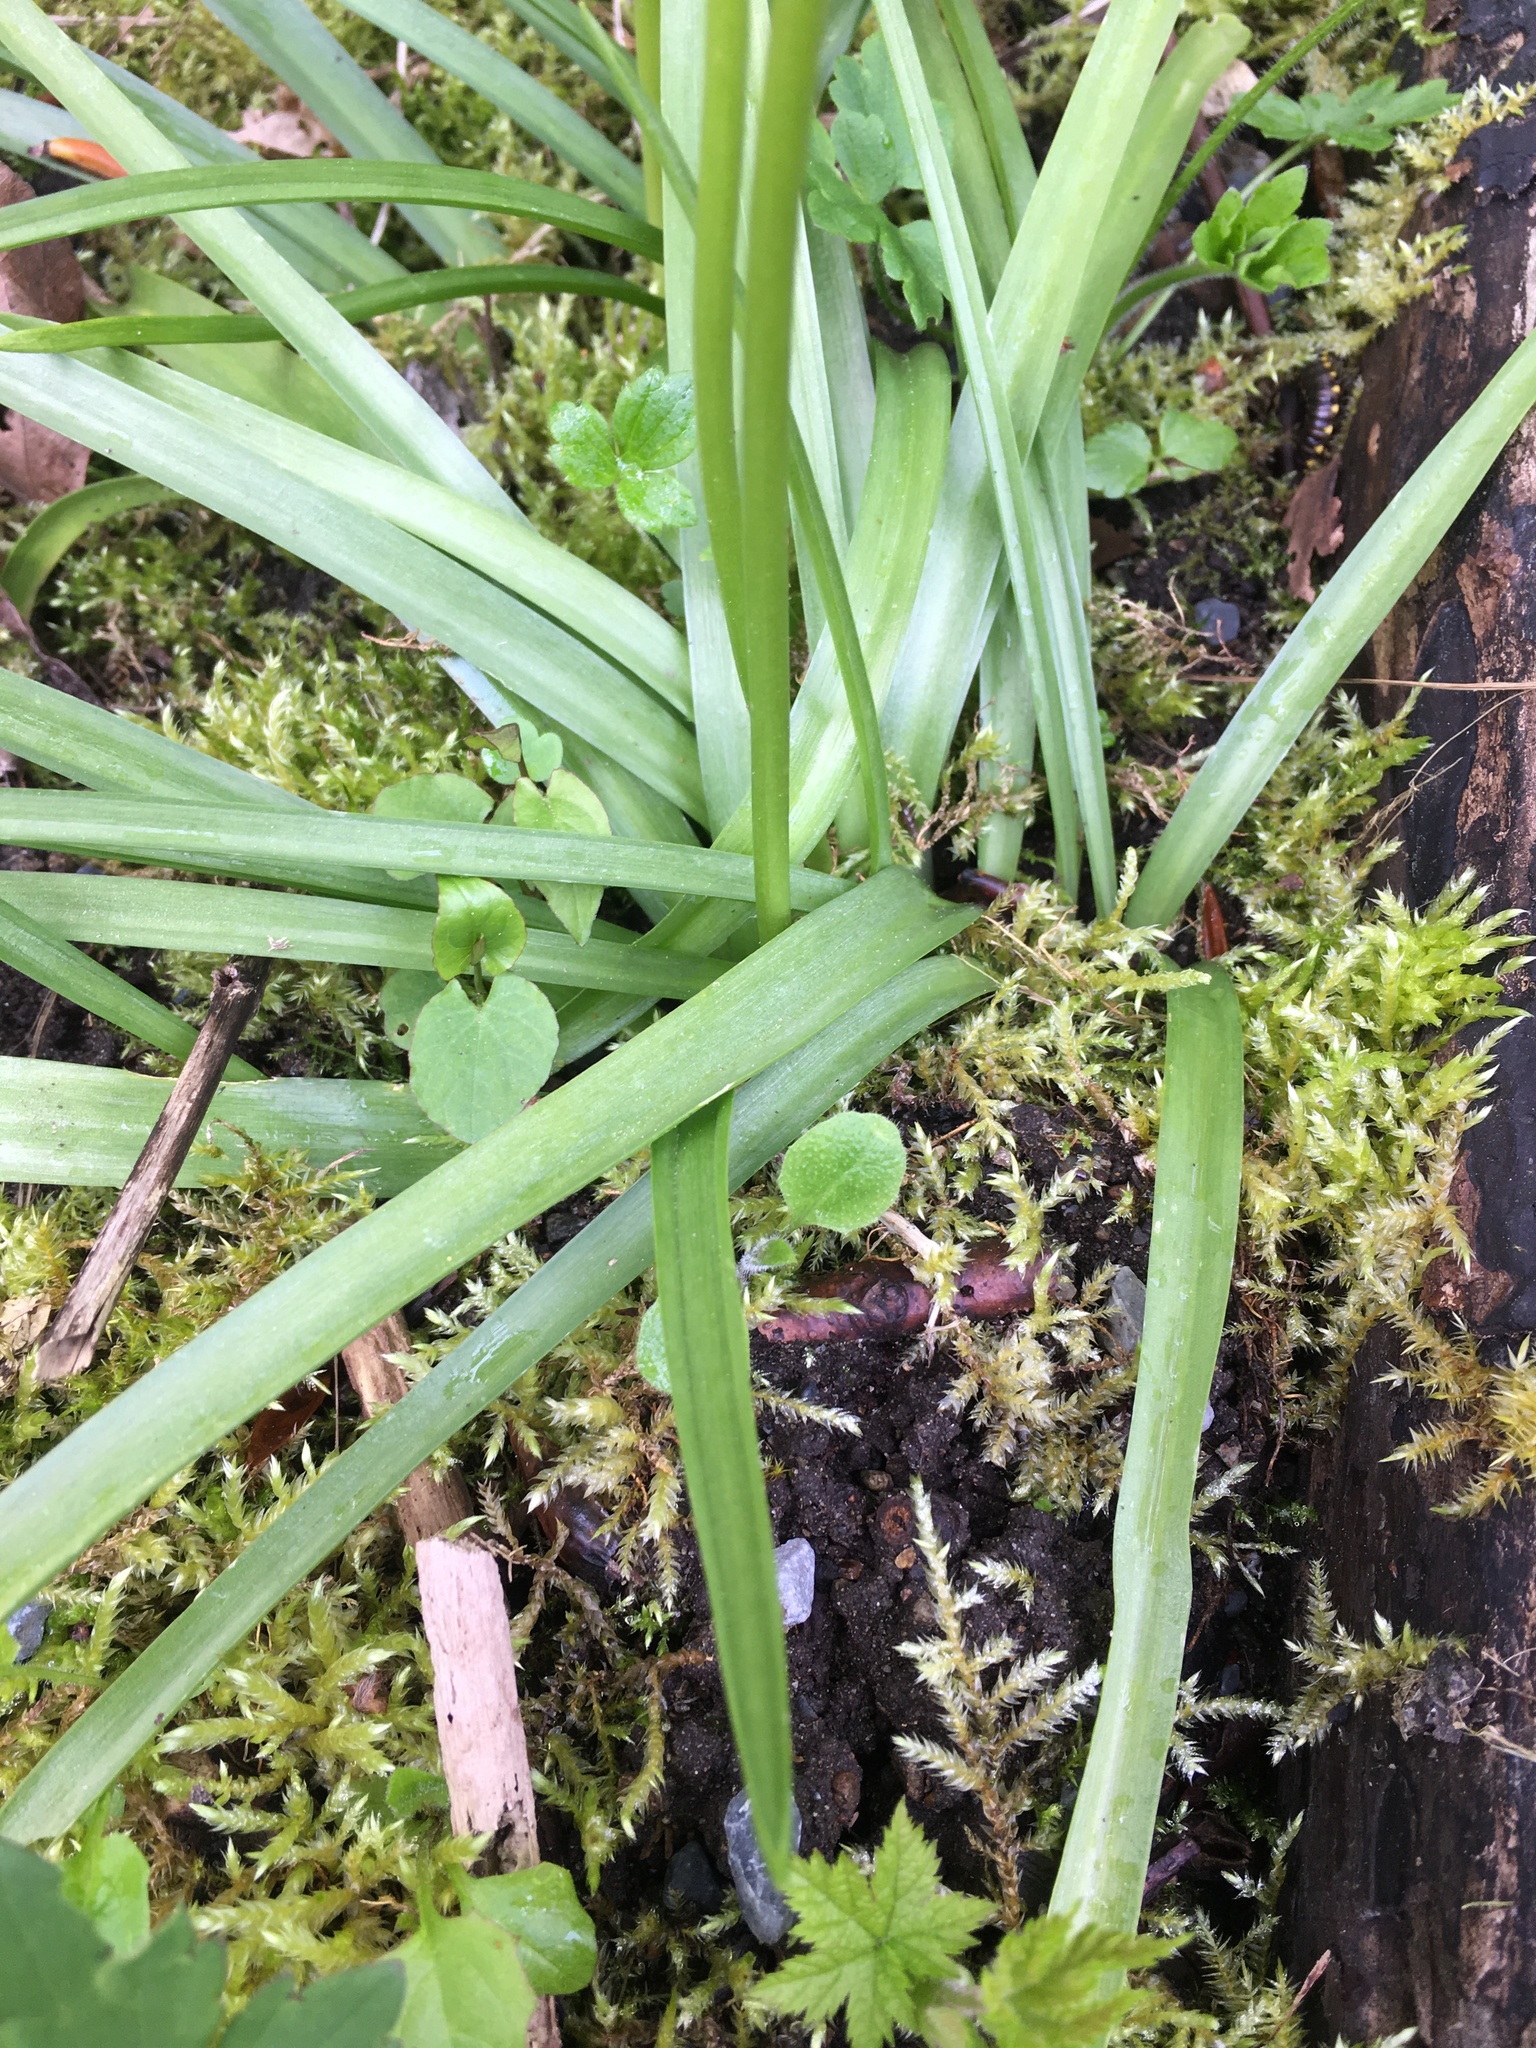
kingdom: Plantae
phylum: Tracheophyta
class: Liliopsida
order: Asparagales
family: Asparagaceae
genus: Hyacinthoides
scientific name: Hyacinthoides hispanica
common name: Spanish bluebell
